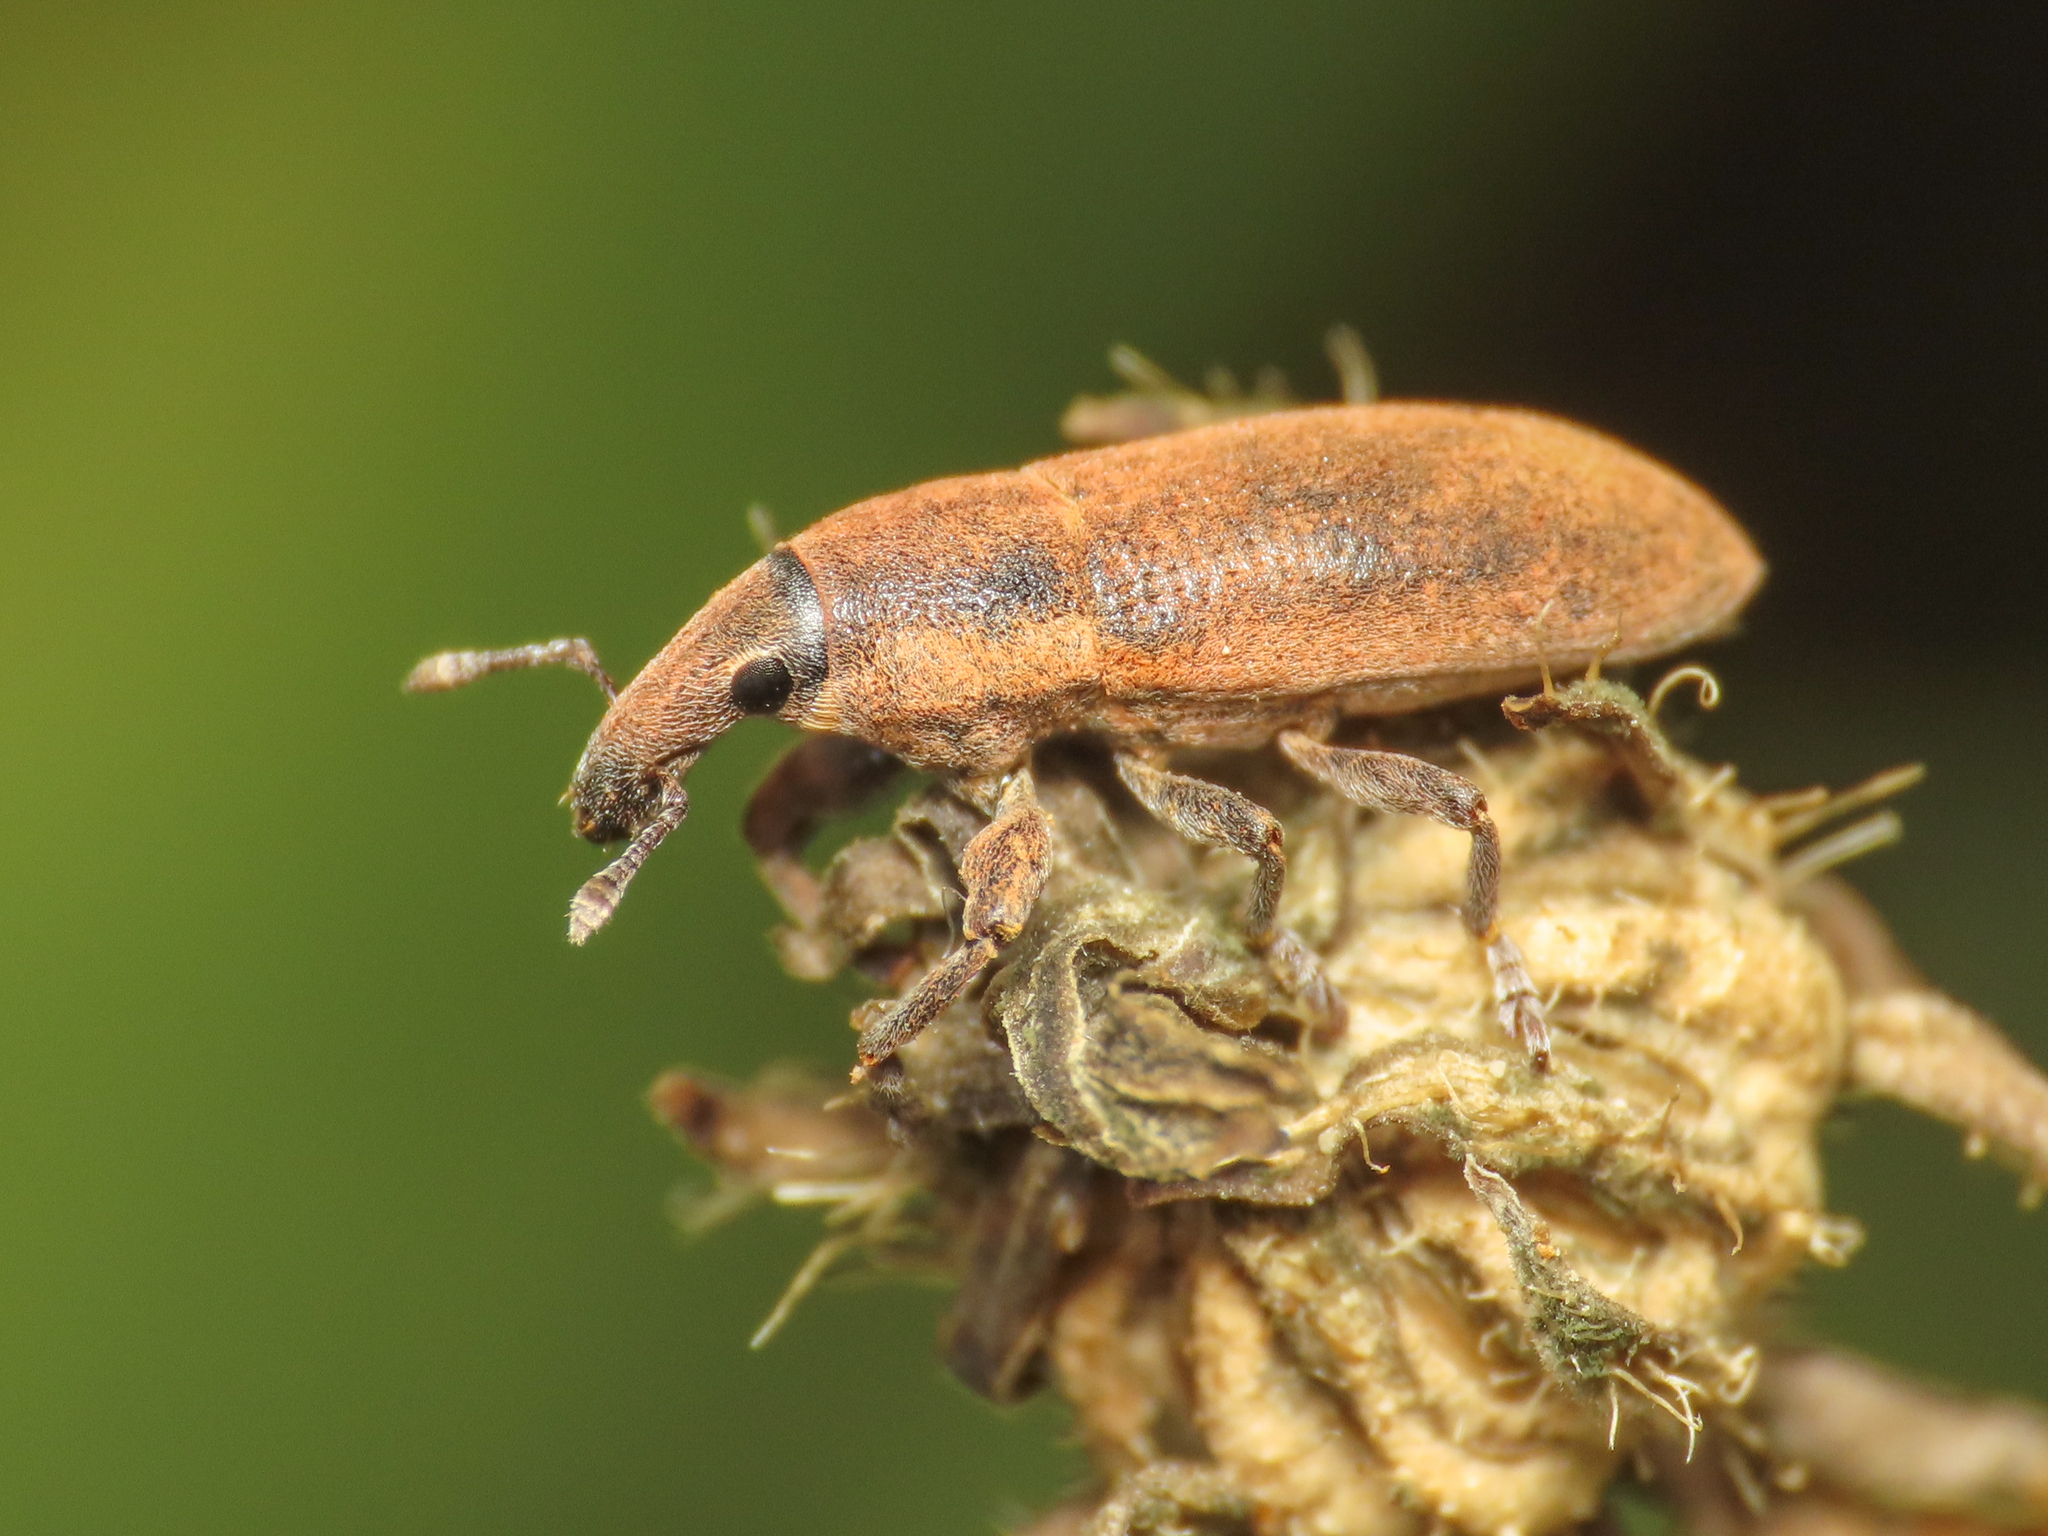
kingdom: Animalia
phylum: Arthropoda
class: Insecta
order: Coleoptera
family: Curculionidae
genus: Lixus
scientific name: Lixus angustus
